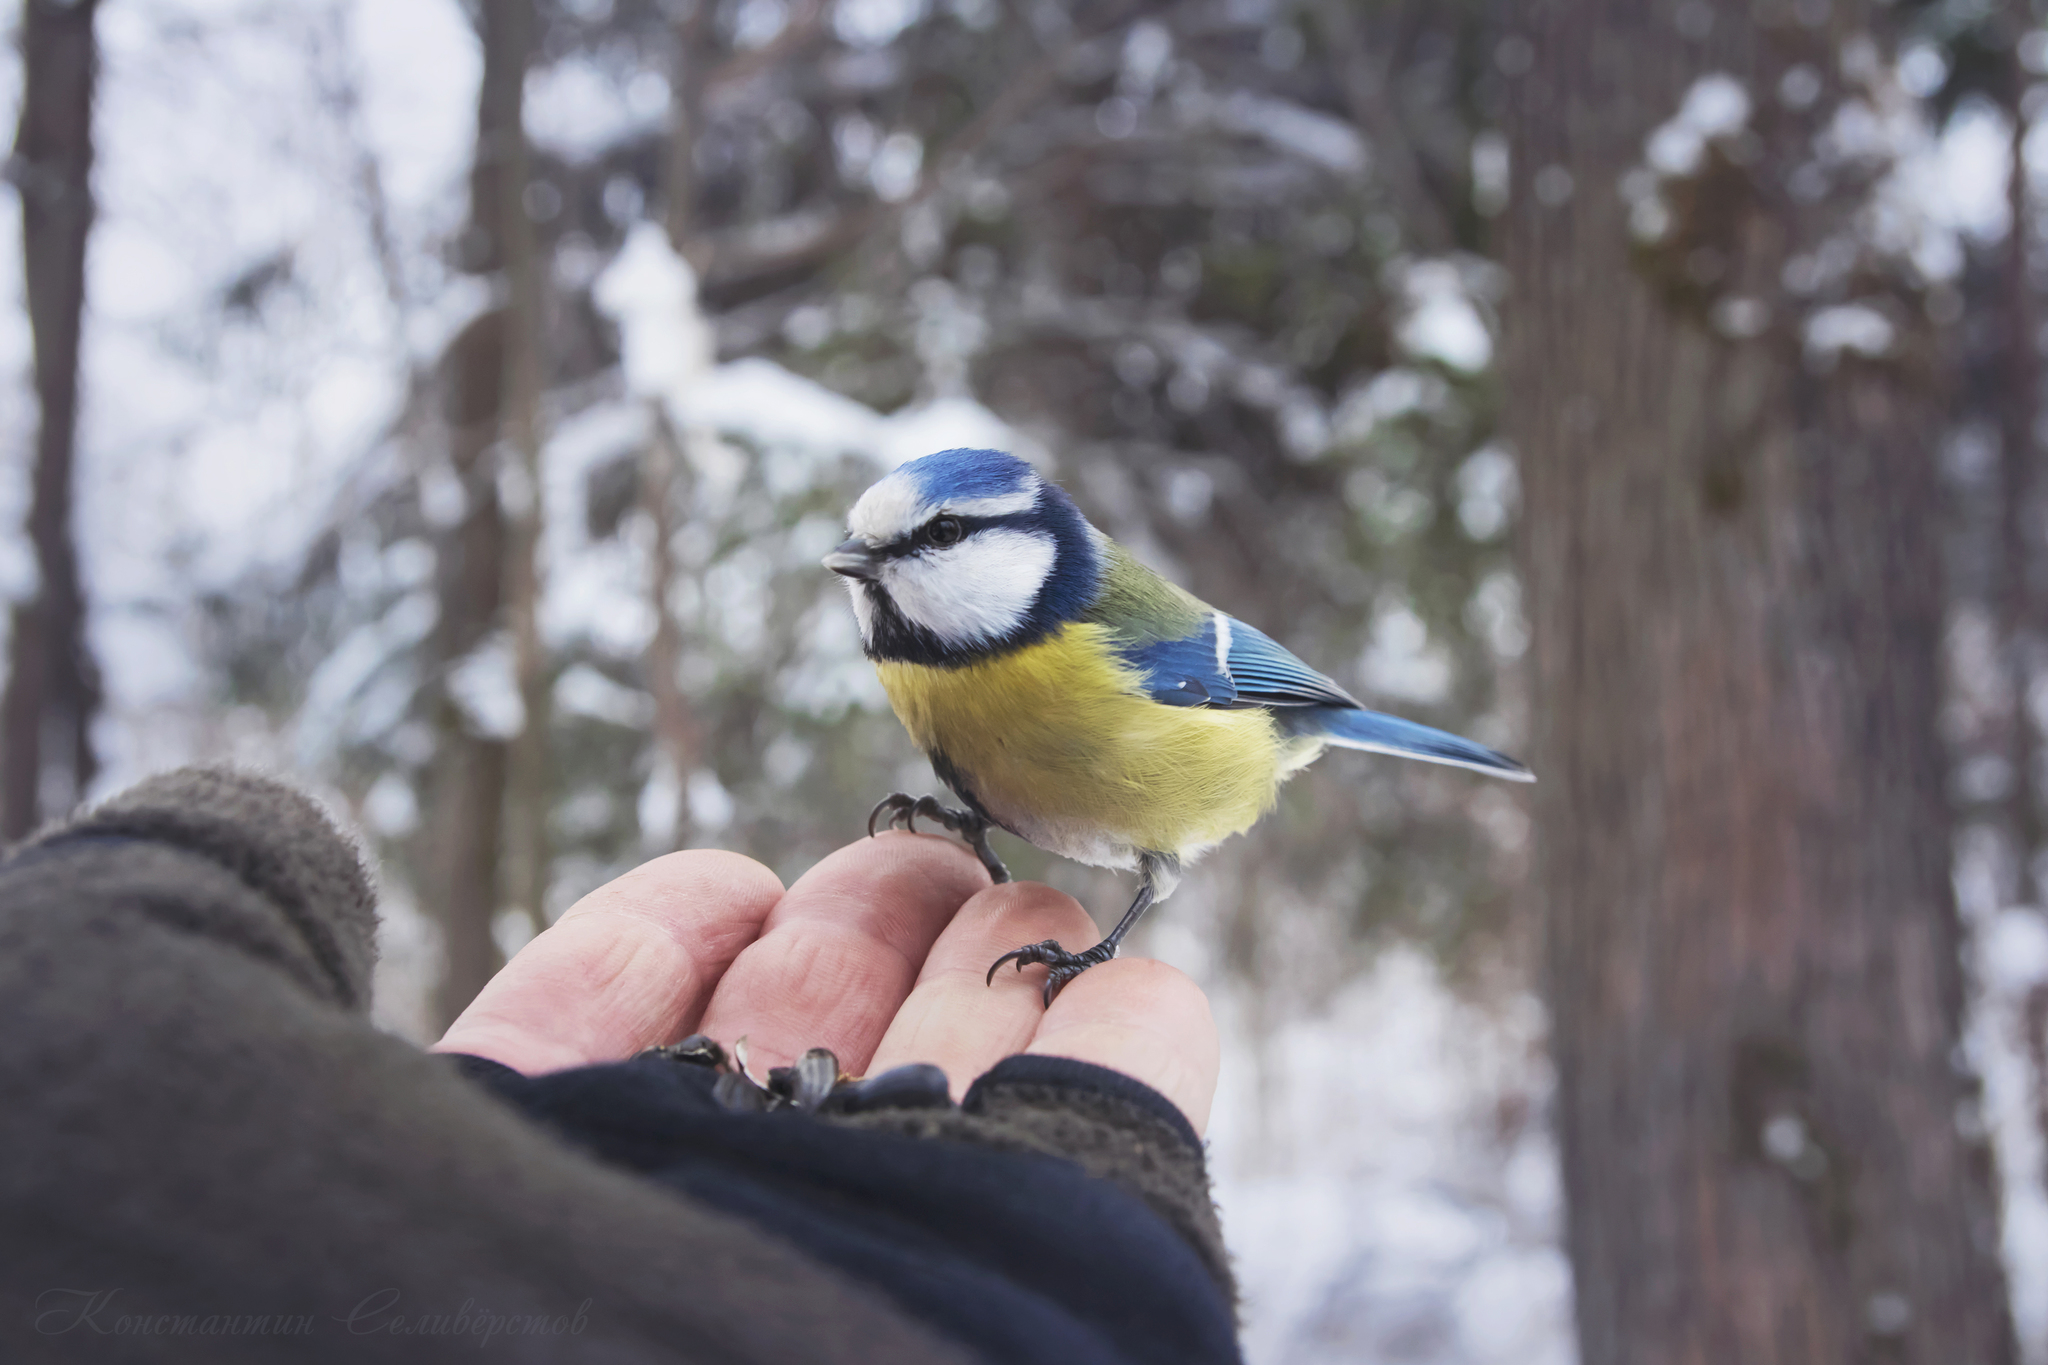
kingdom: Animalia
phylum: Chordata
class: Aves
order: Passeriformes
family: Paridae
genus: Cyanistes
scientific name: Cyanistes caeruleus
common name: Eurasian blue tit
